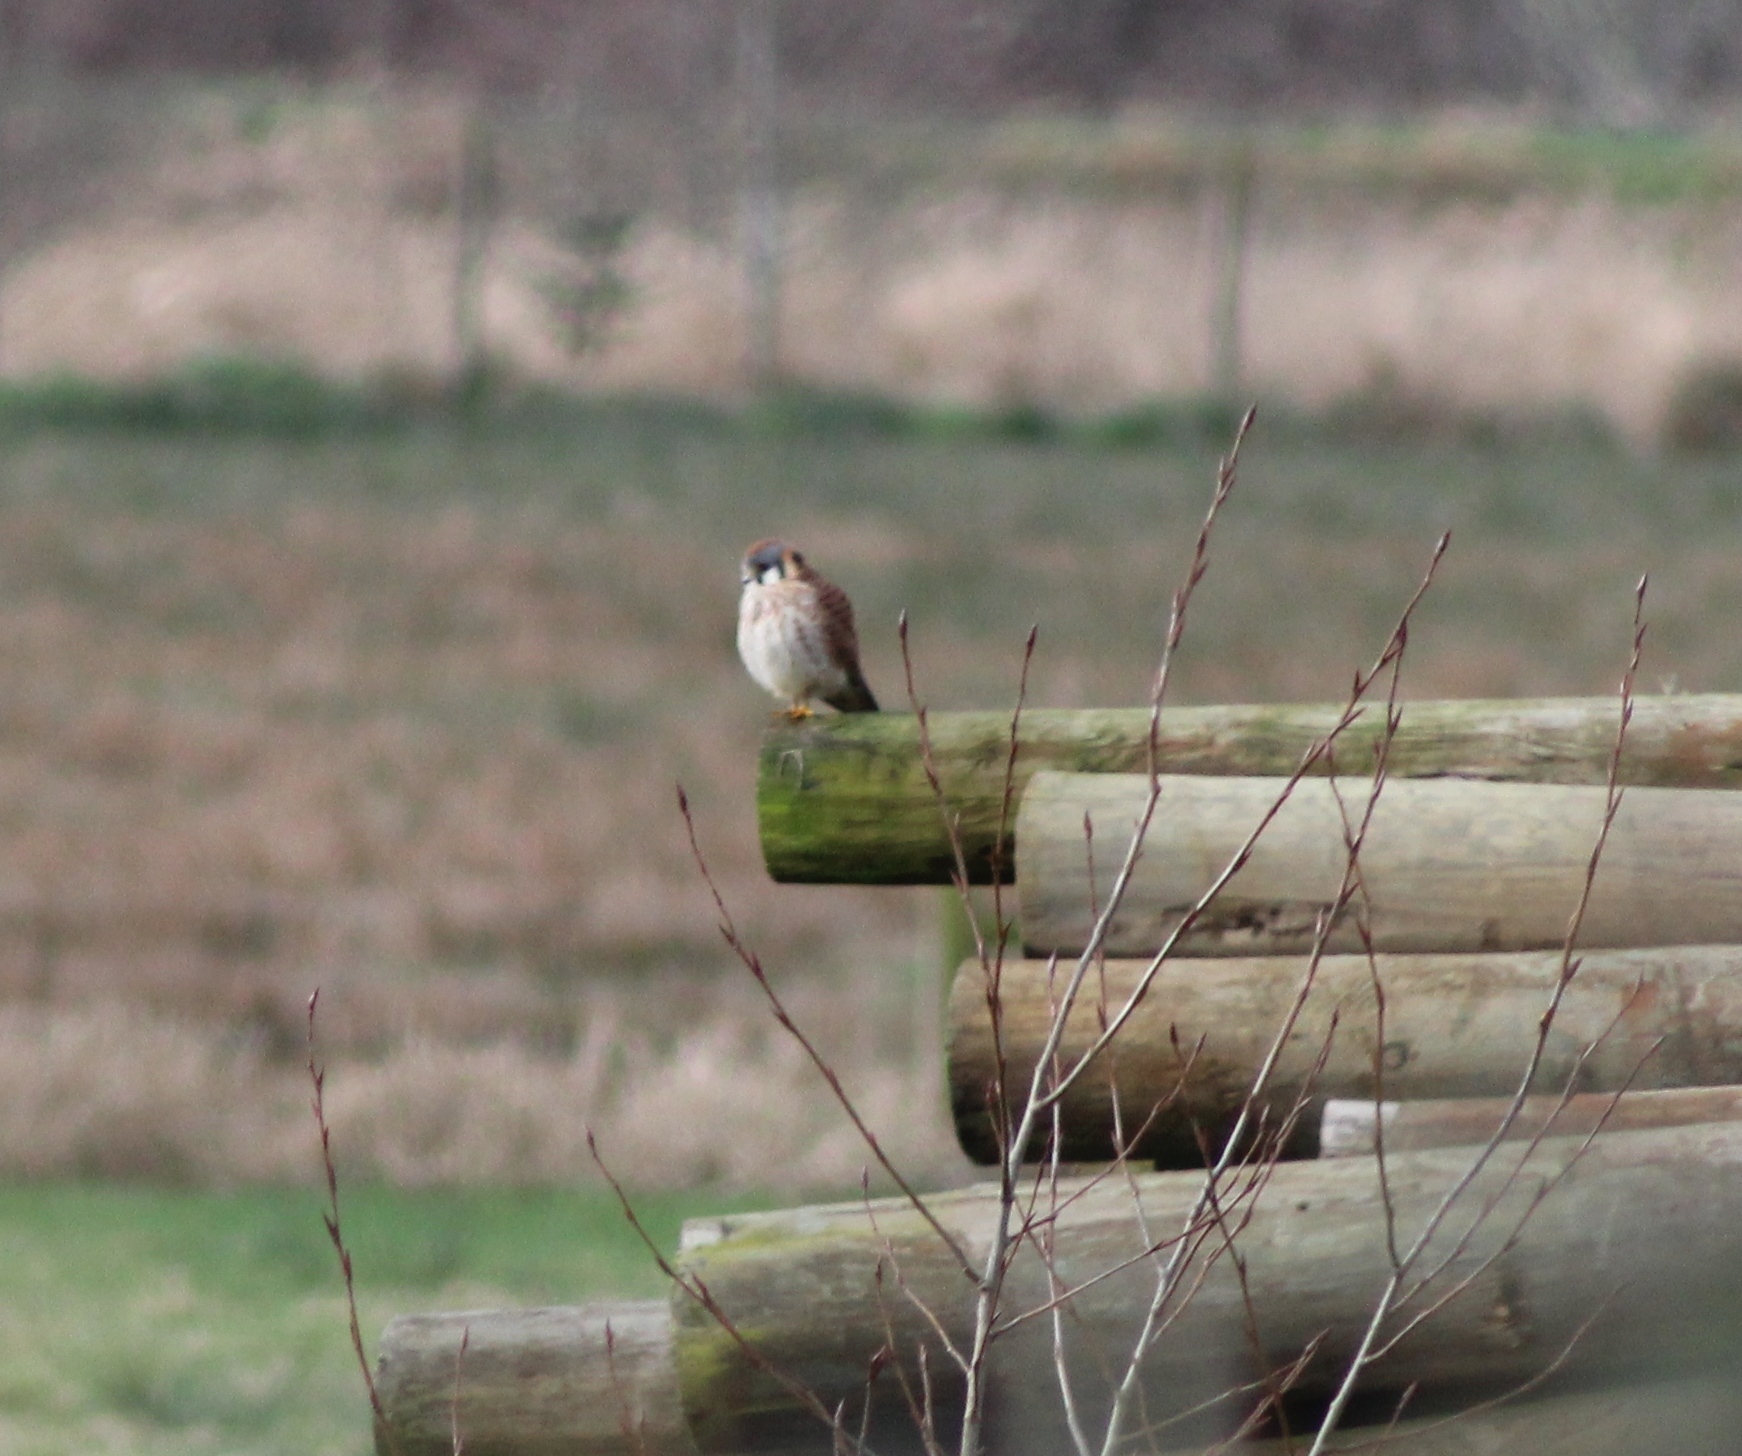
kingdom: Animalia
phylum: Chordata
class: Aves
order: Falconiformes
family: Falconidae
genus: Falco
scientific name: Falco sparverius
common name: American kestrel
